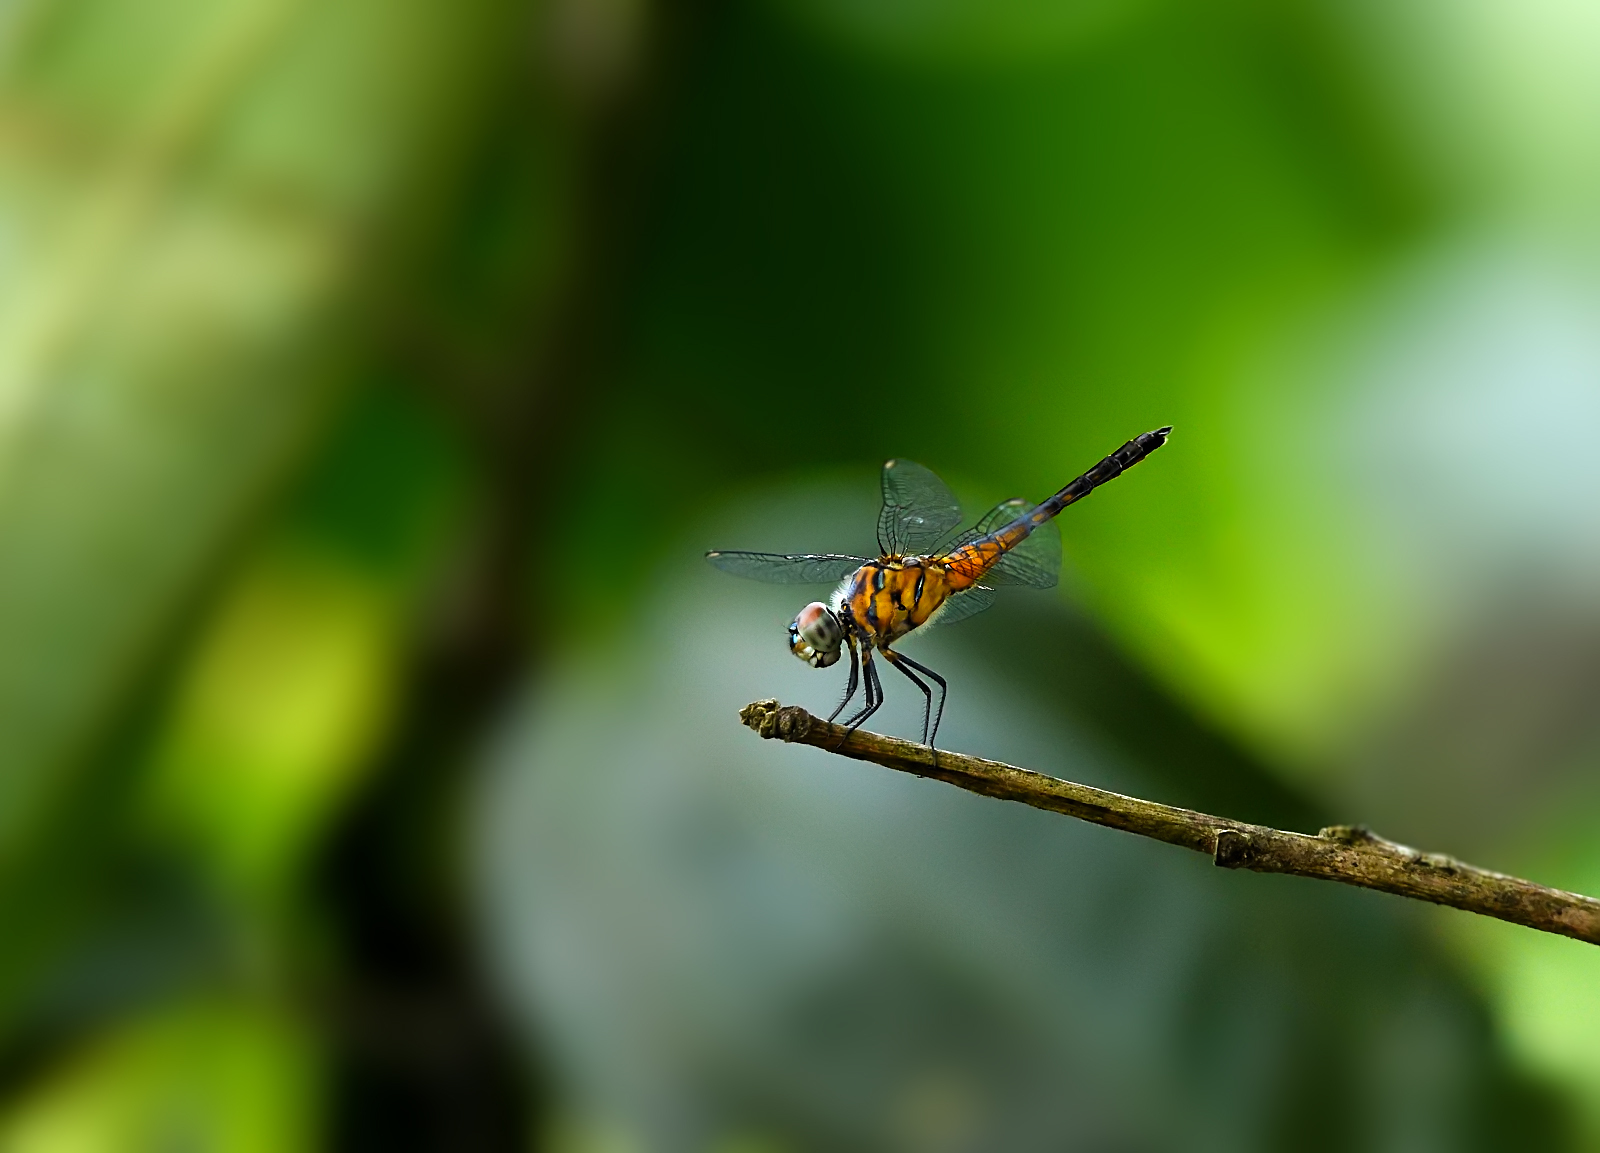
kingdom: Animalia
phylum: Arthropoda
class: Insecta
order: Odonata
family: Libellulidae
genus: Brachydiplax
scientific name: Brachydiplax chalybea
